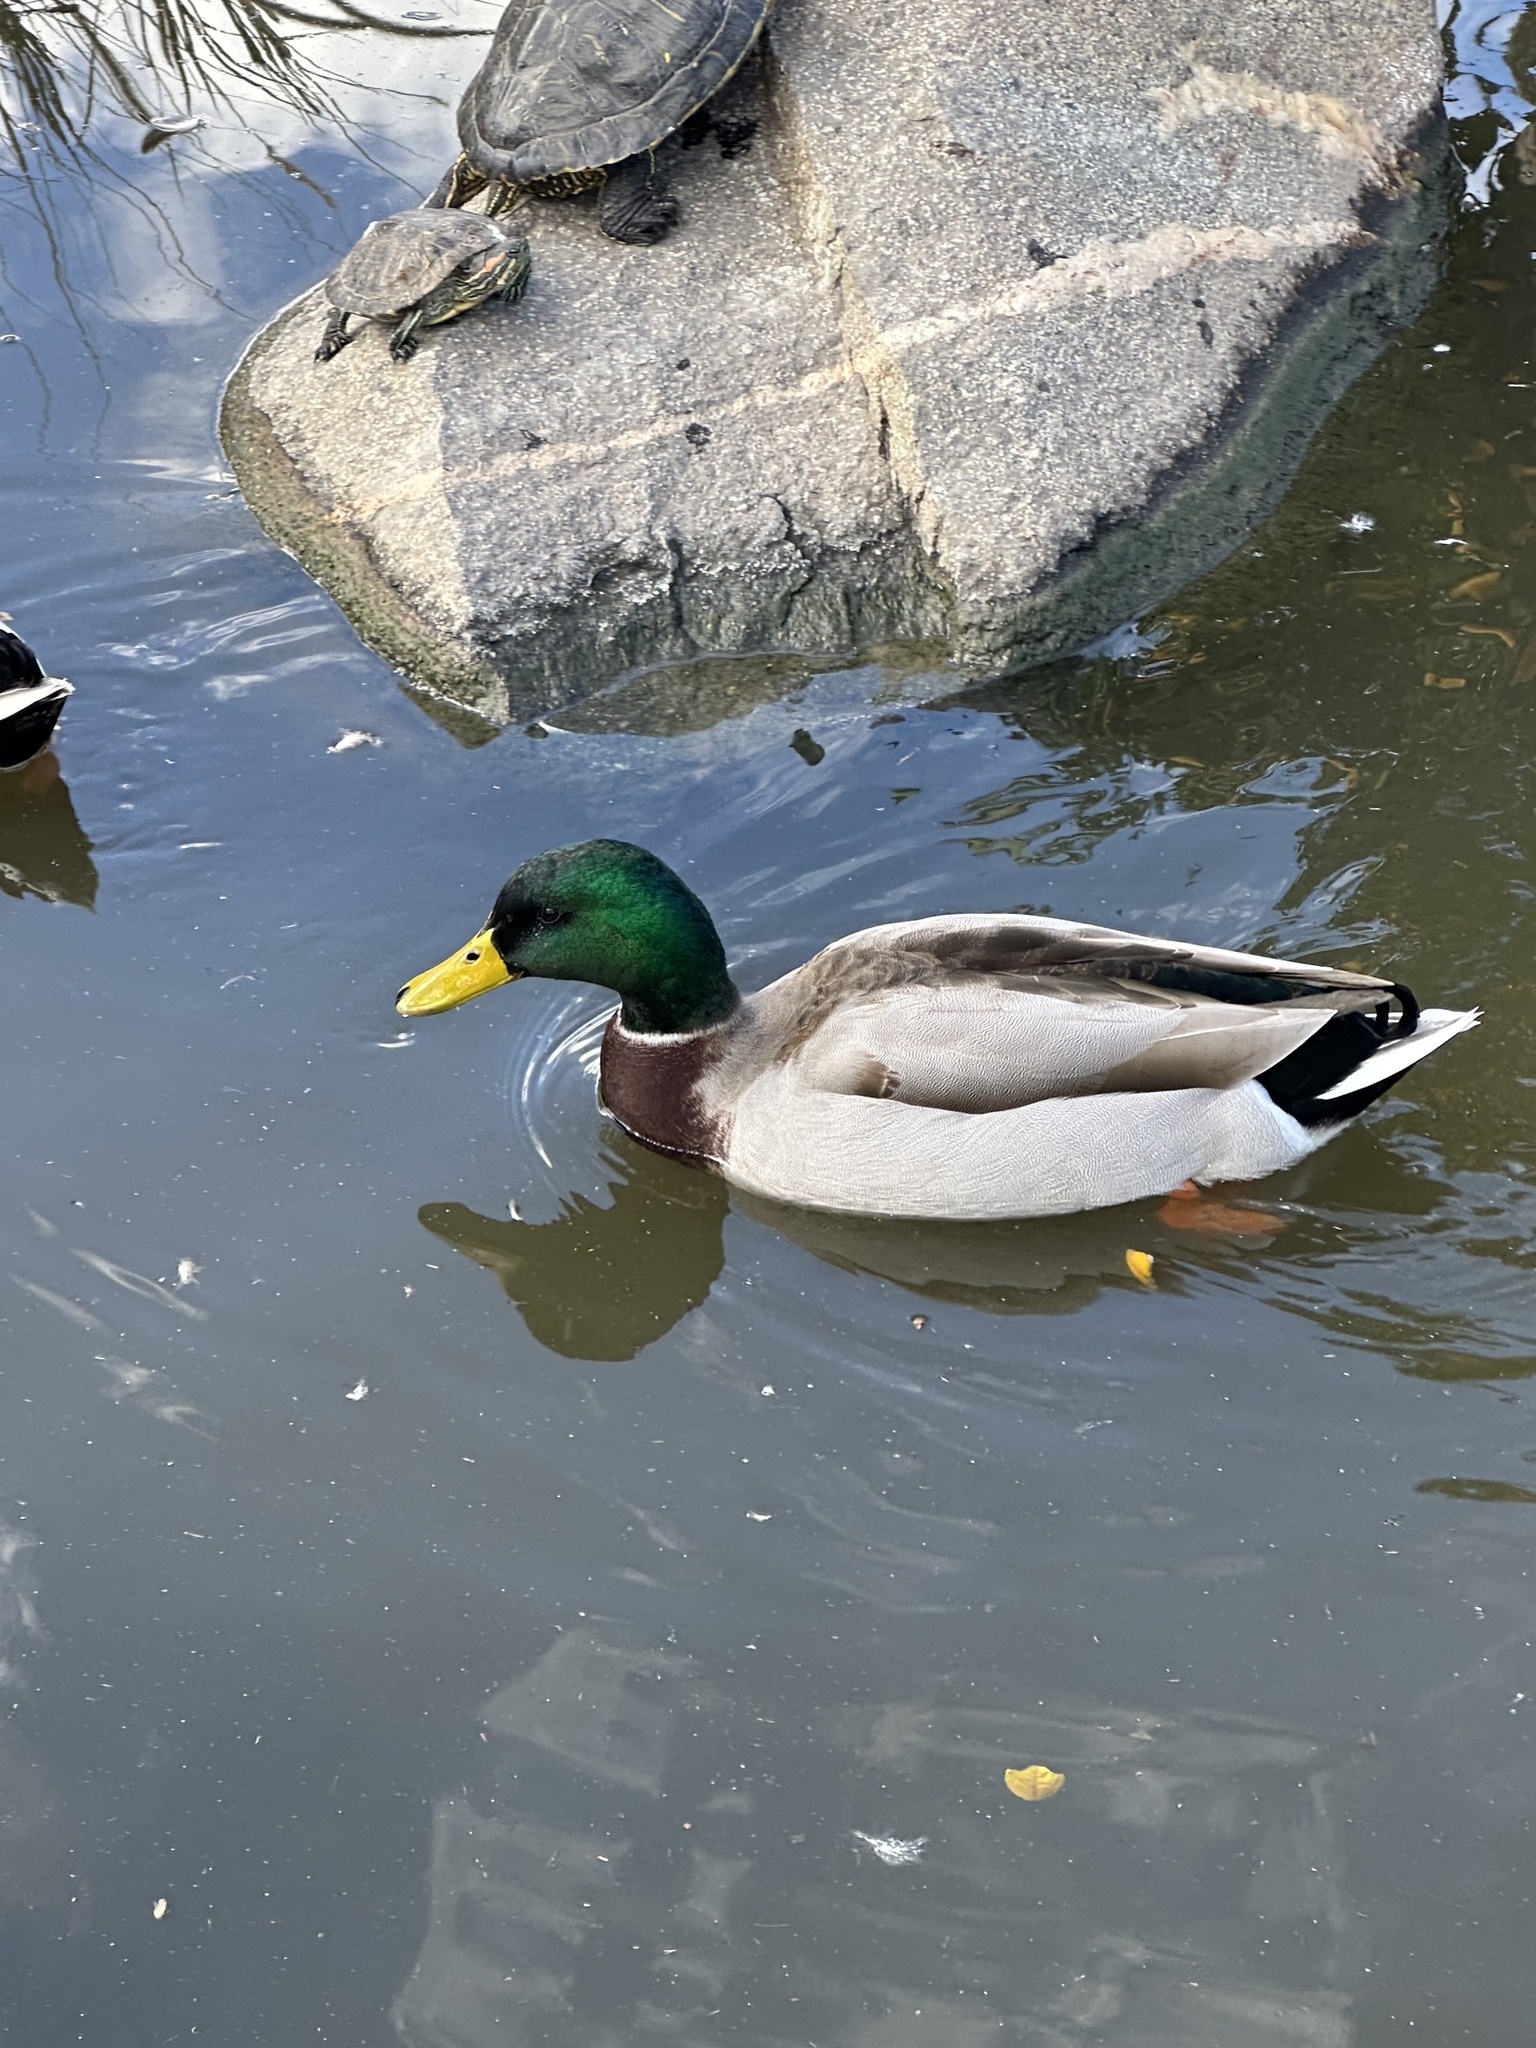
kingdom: Animalia
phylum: Chordata
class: Aves
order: Anseriformes
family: Anatidae
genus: Anas
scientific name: Anas platyrhynchos
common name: Mallard
